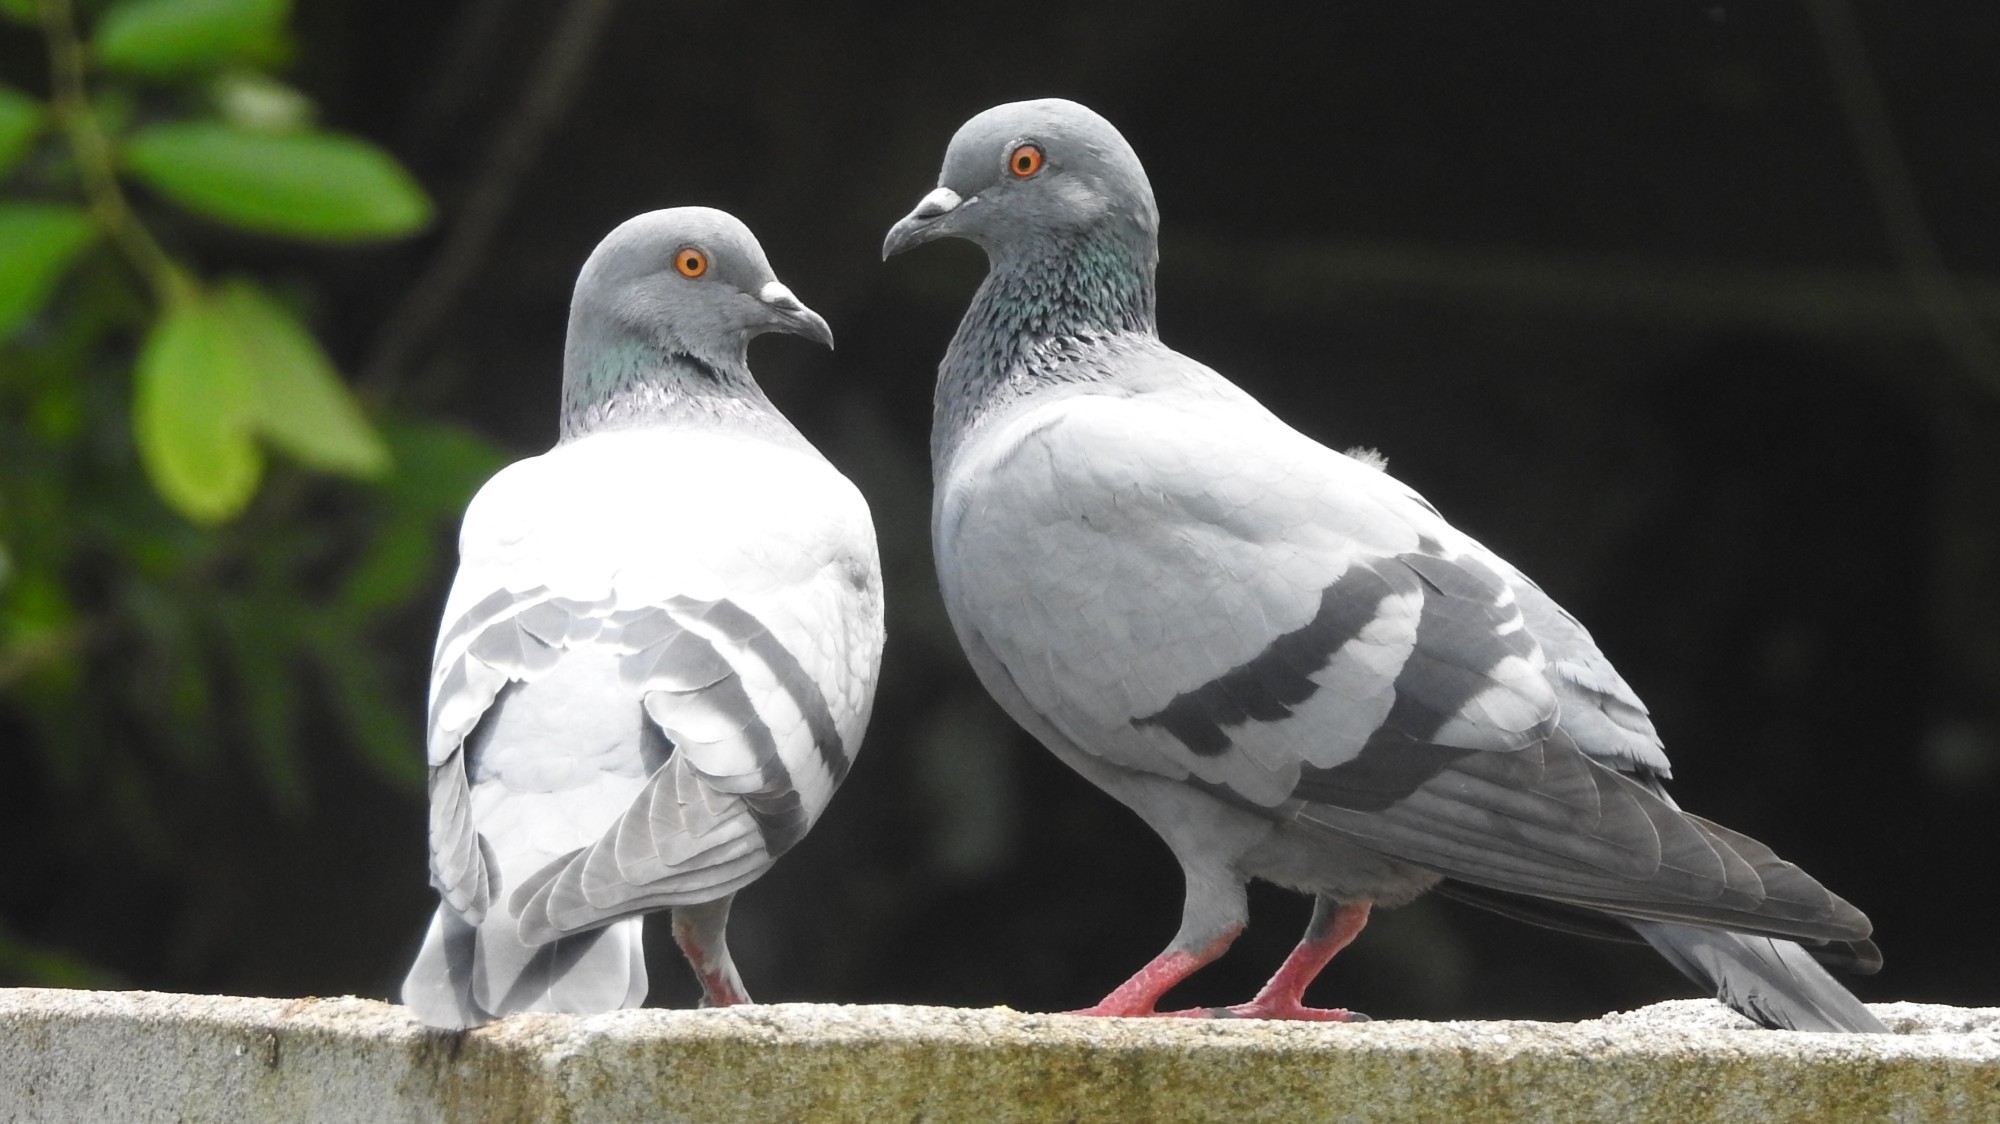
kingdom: Animalia
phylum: Chordata
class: Aves
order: Columbiformes
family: Columbidae
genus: Columba
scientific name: Columba livia
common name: Rock pigeon
